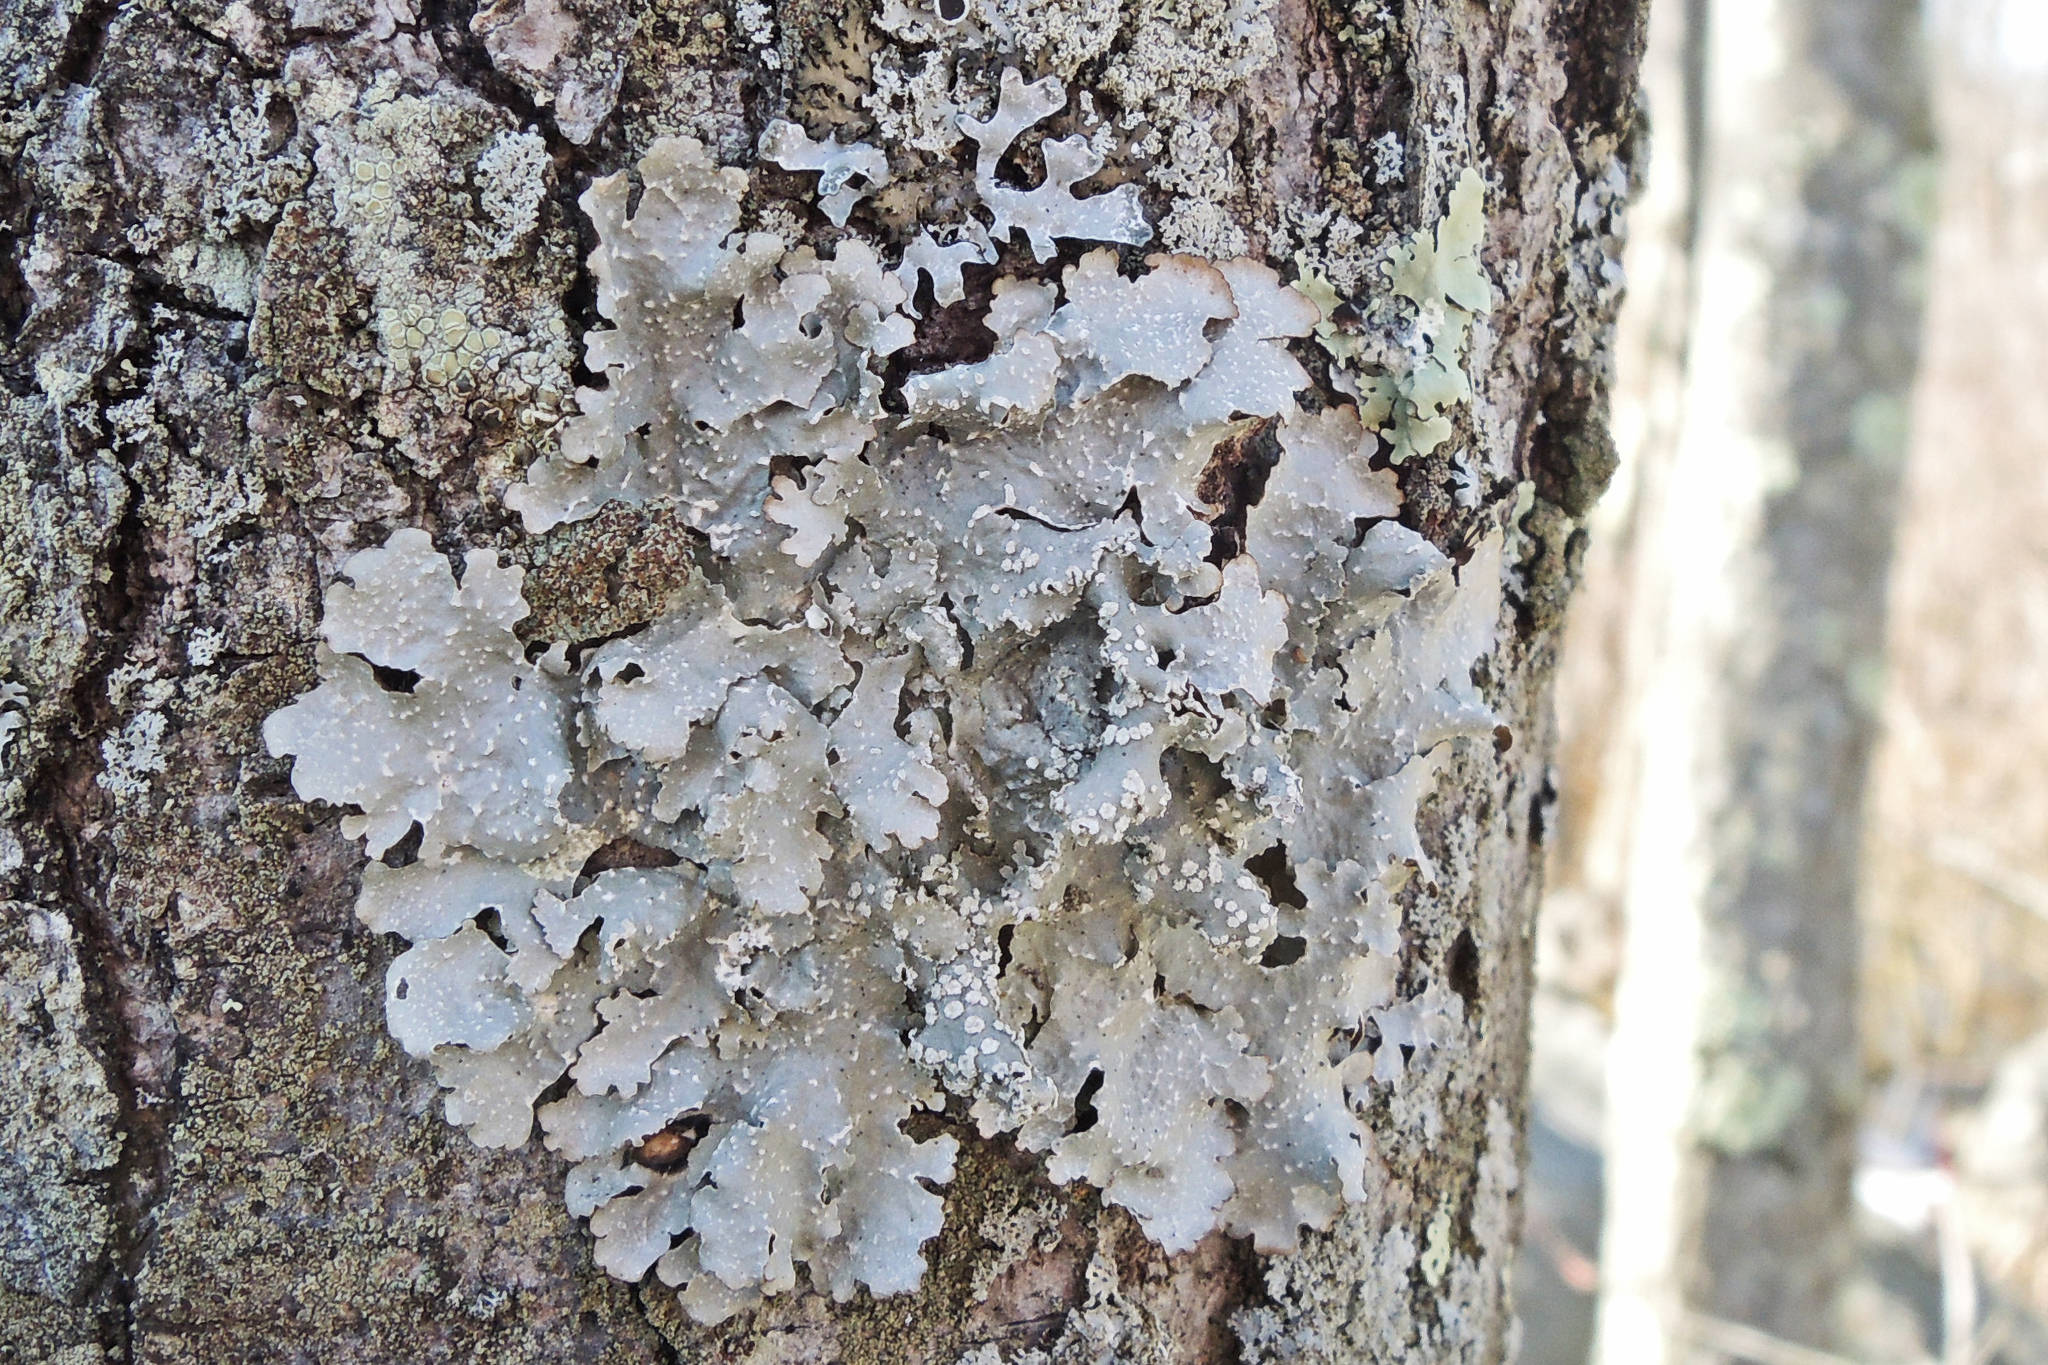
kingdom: Fungi
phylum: Ascomycota
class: Lecanoromycetes
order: Lecanorales
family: Parmeliaceae
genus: Punctelia
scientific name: Punctelia caseana
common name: Moondust speckled lichen
